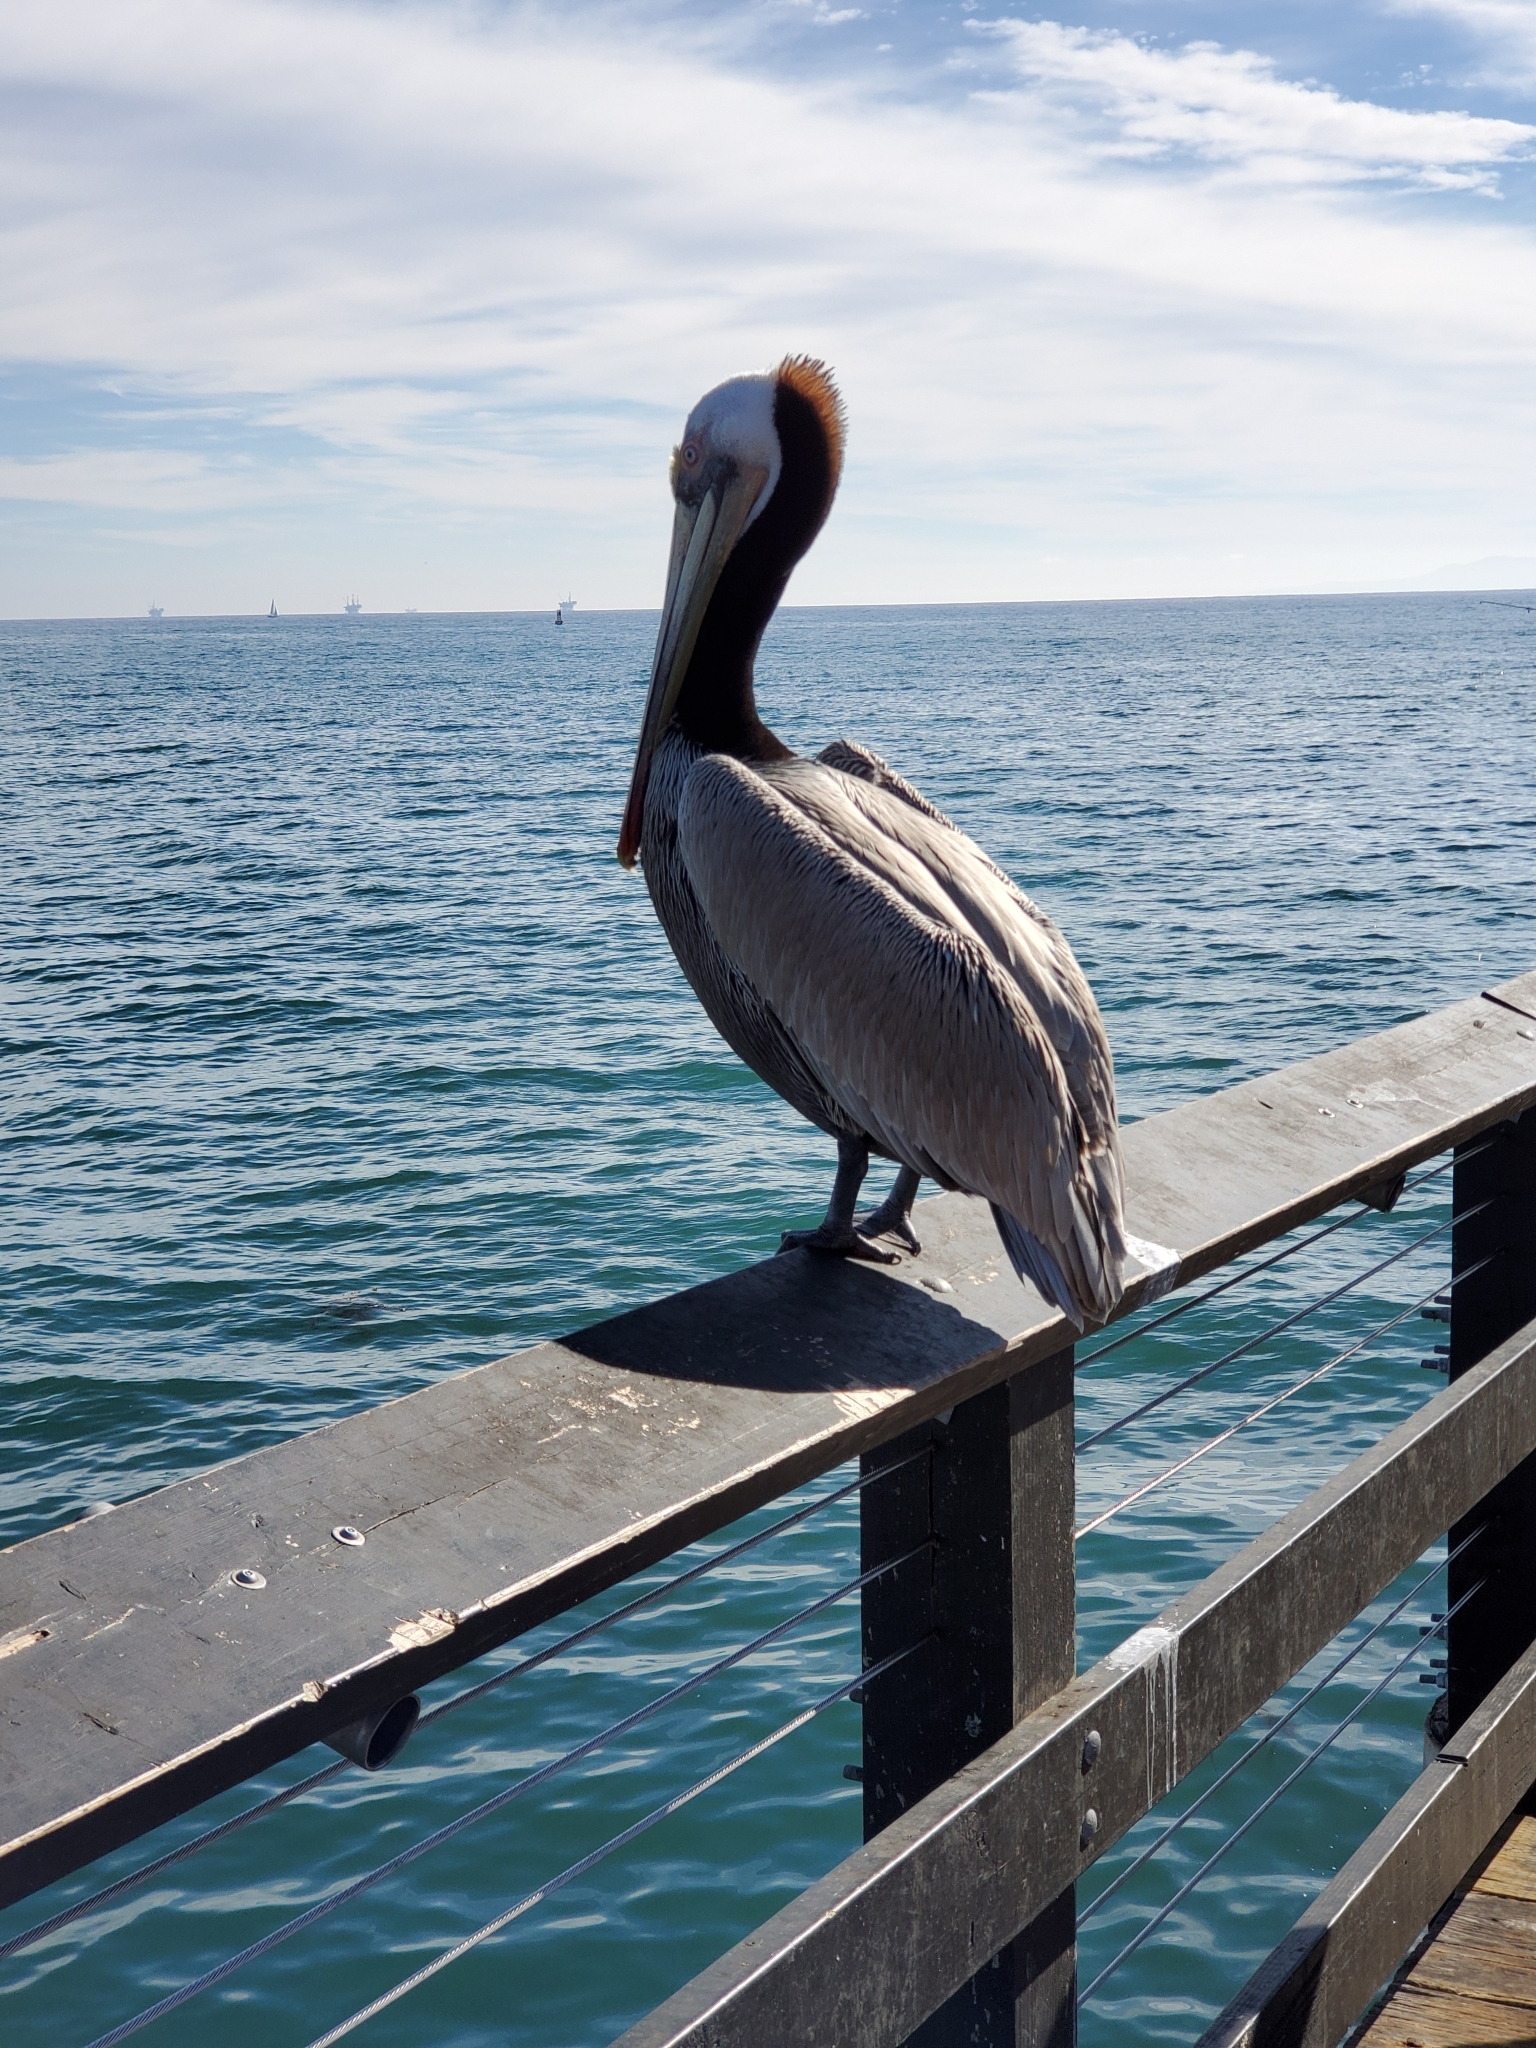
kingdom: Animalia
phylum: Chordata
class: Aves
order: Pelecaniformes
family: Pelecanidae
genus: Pelecanus
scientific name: Pelecanus occidentalis
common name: Brown pelican
